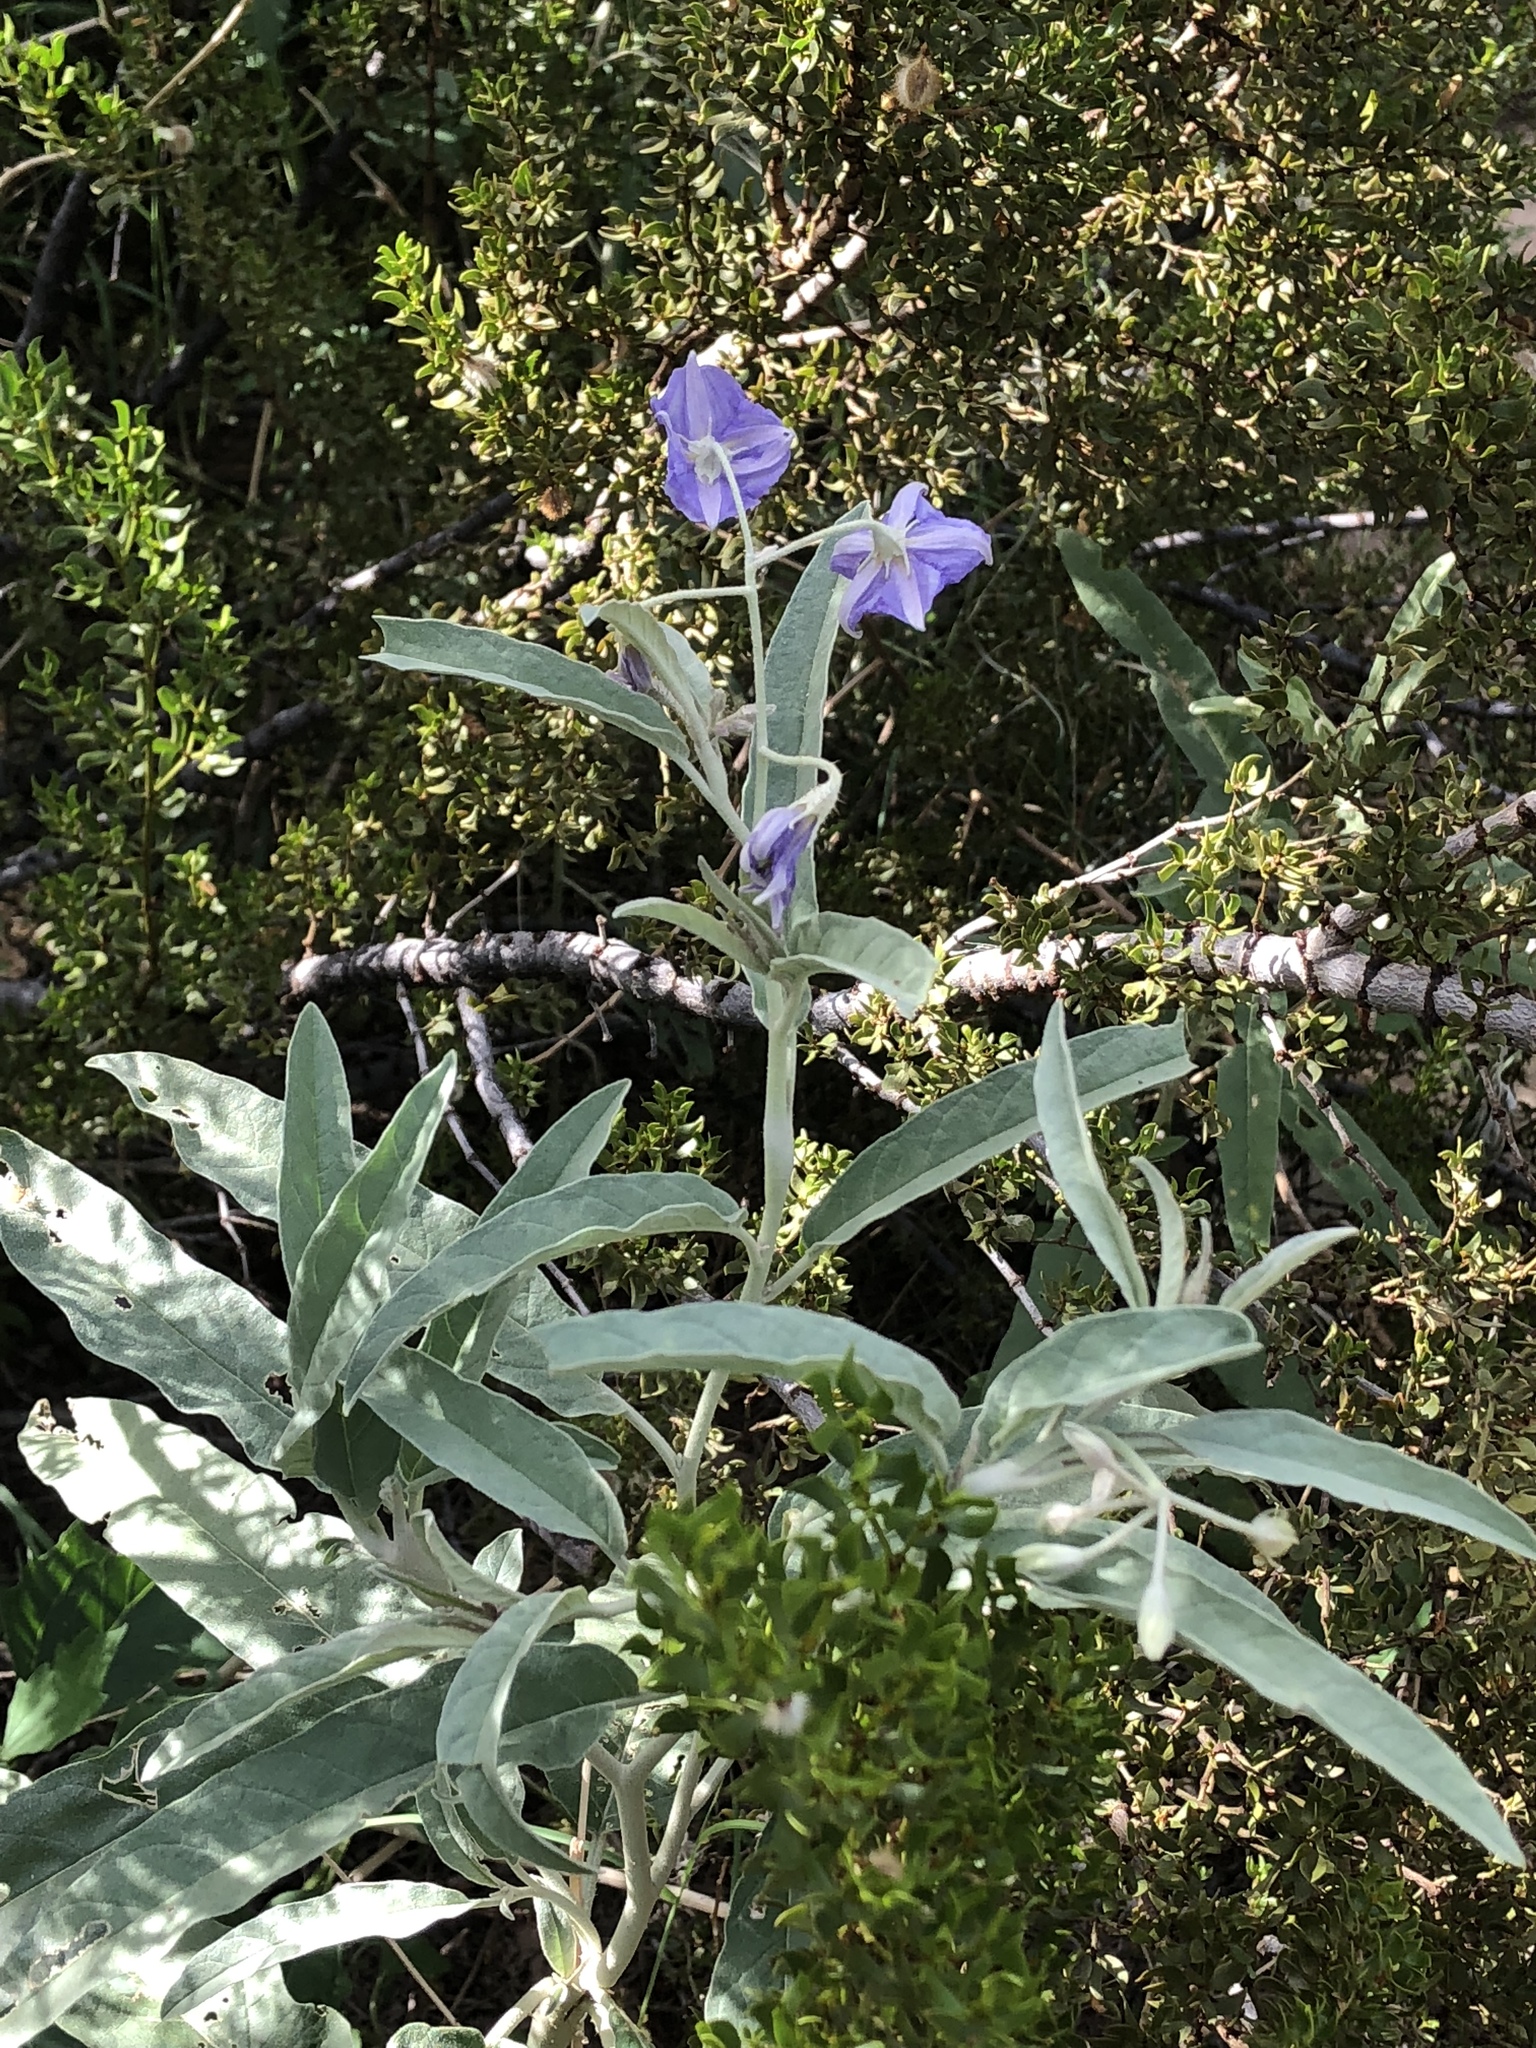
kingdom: Plantae
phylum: Tracheophyta
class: Magnoliopsida
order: Solanales
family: Solanaceae
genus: Solanum
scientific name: Solanum elaeagnifolium
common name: Silverleaf nightshade
